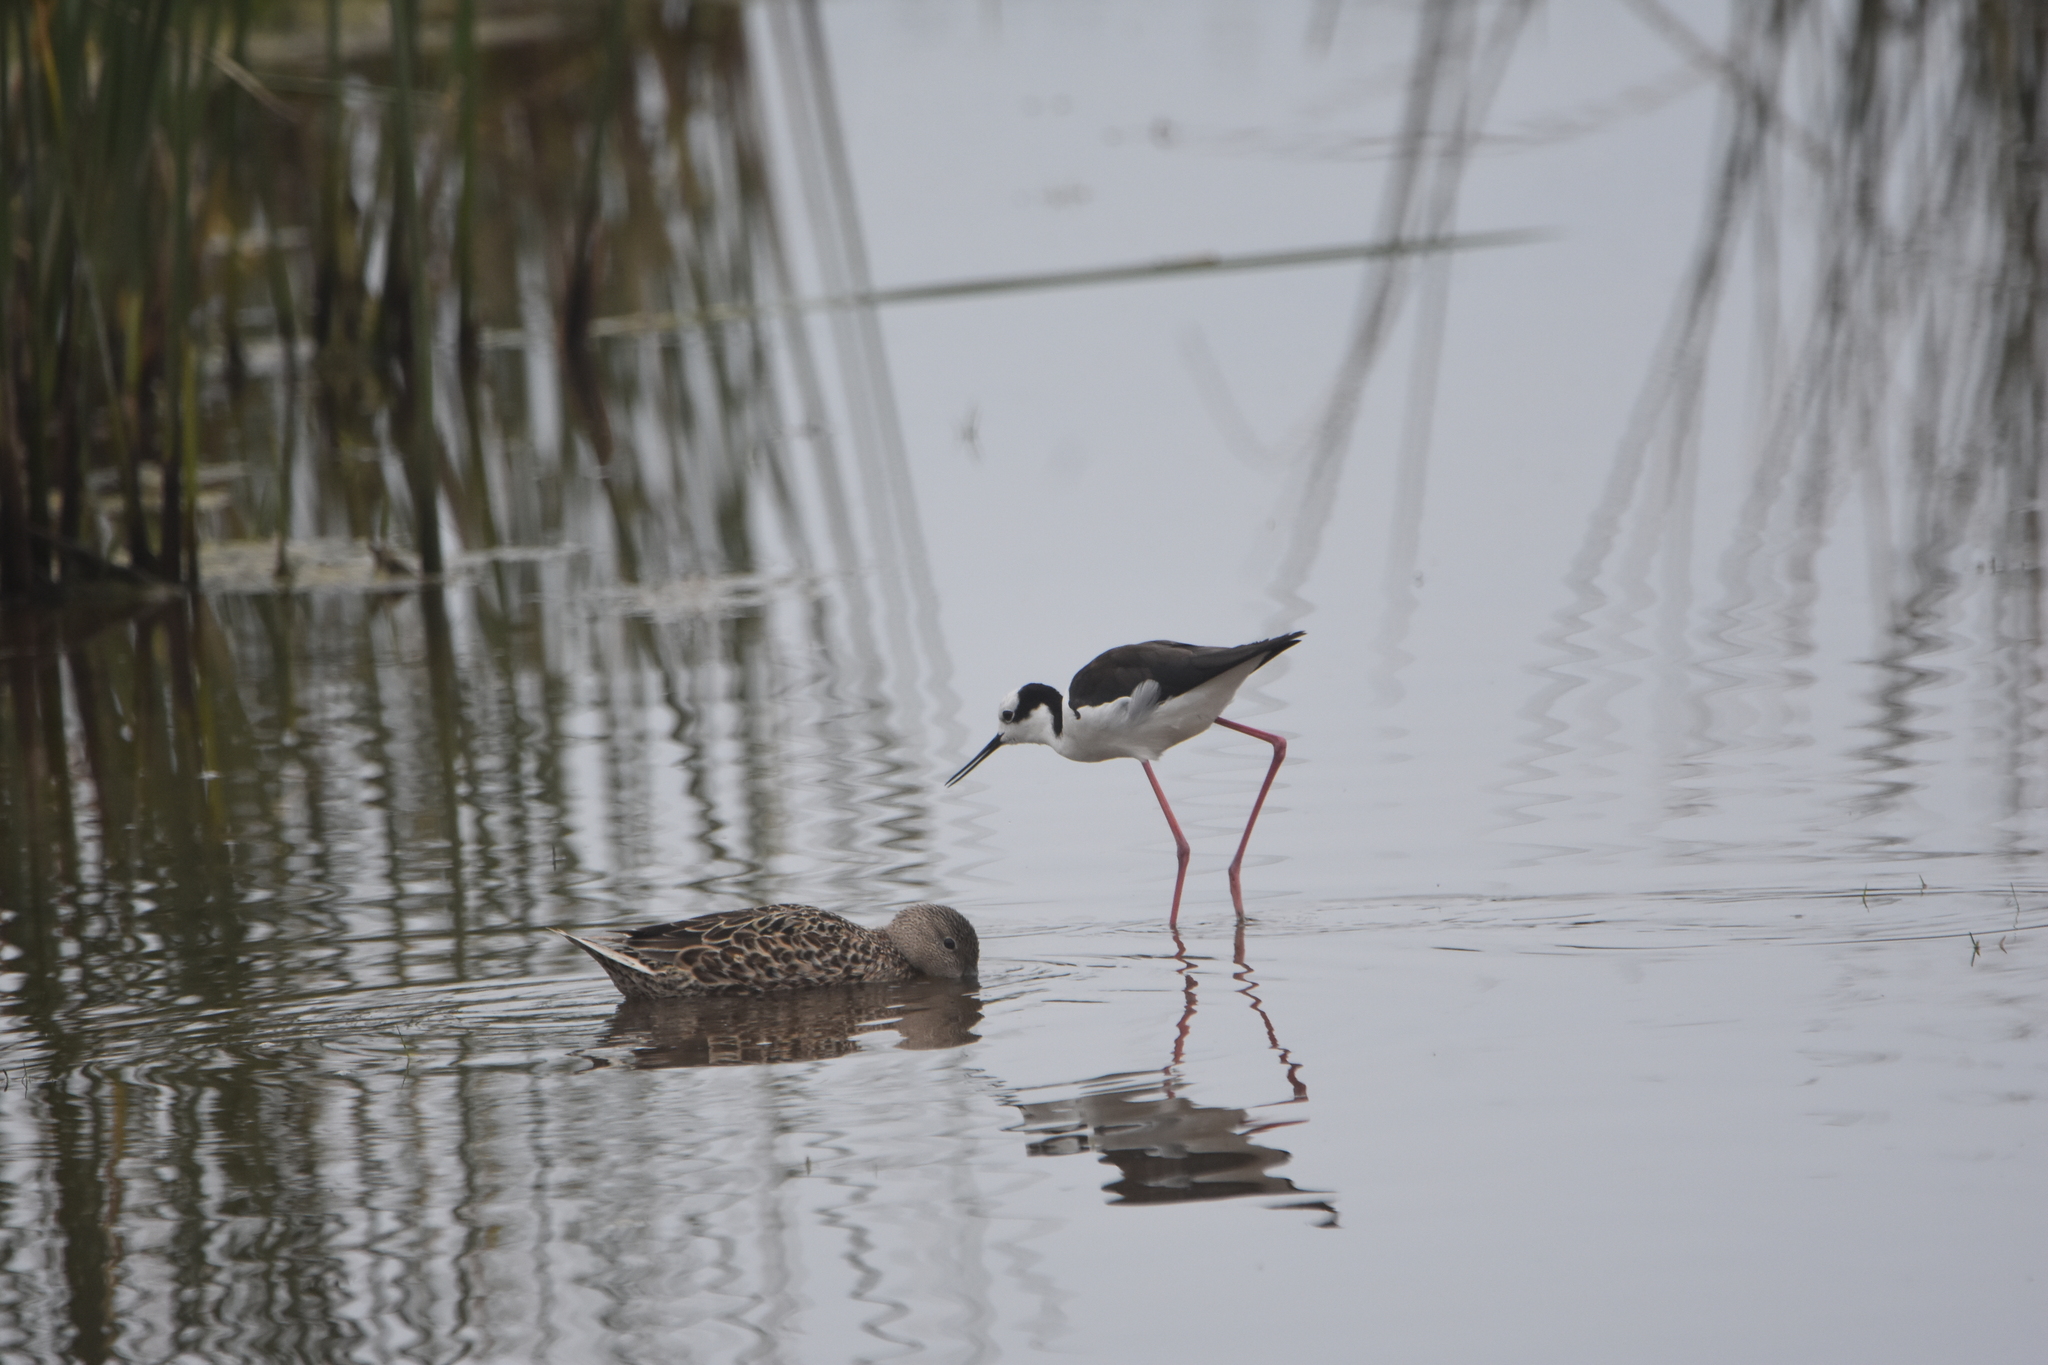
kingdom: Animalia
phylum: Chordata
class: Aves
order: Charadriiformes
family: Recurvirostridae
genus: Himantopus
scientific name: Himantopus mexicanus
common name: Black-necked stilt
